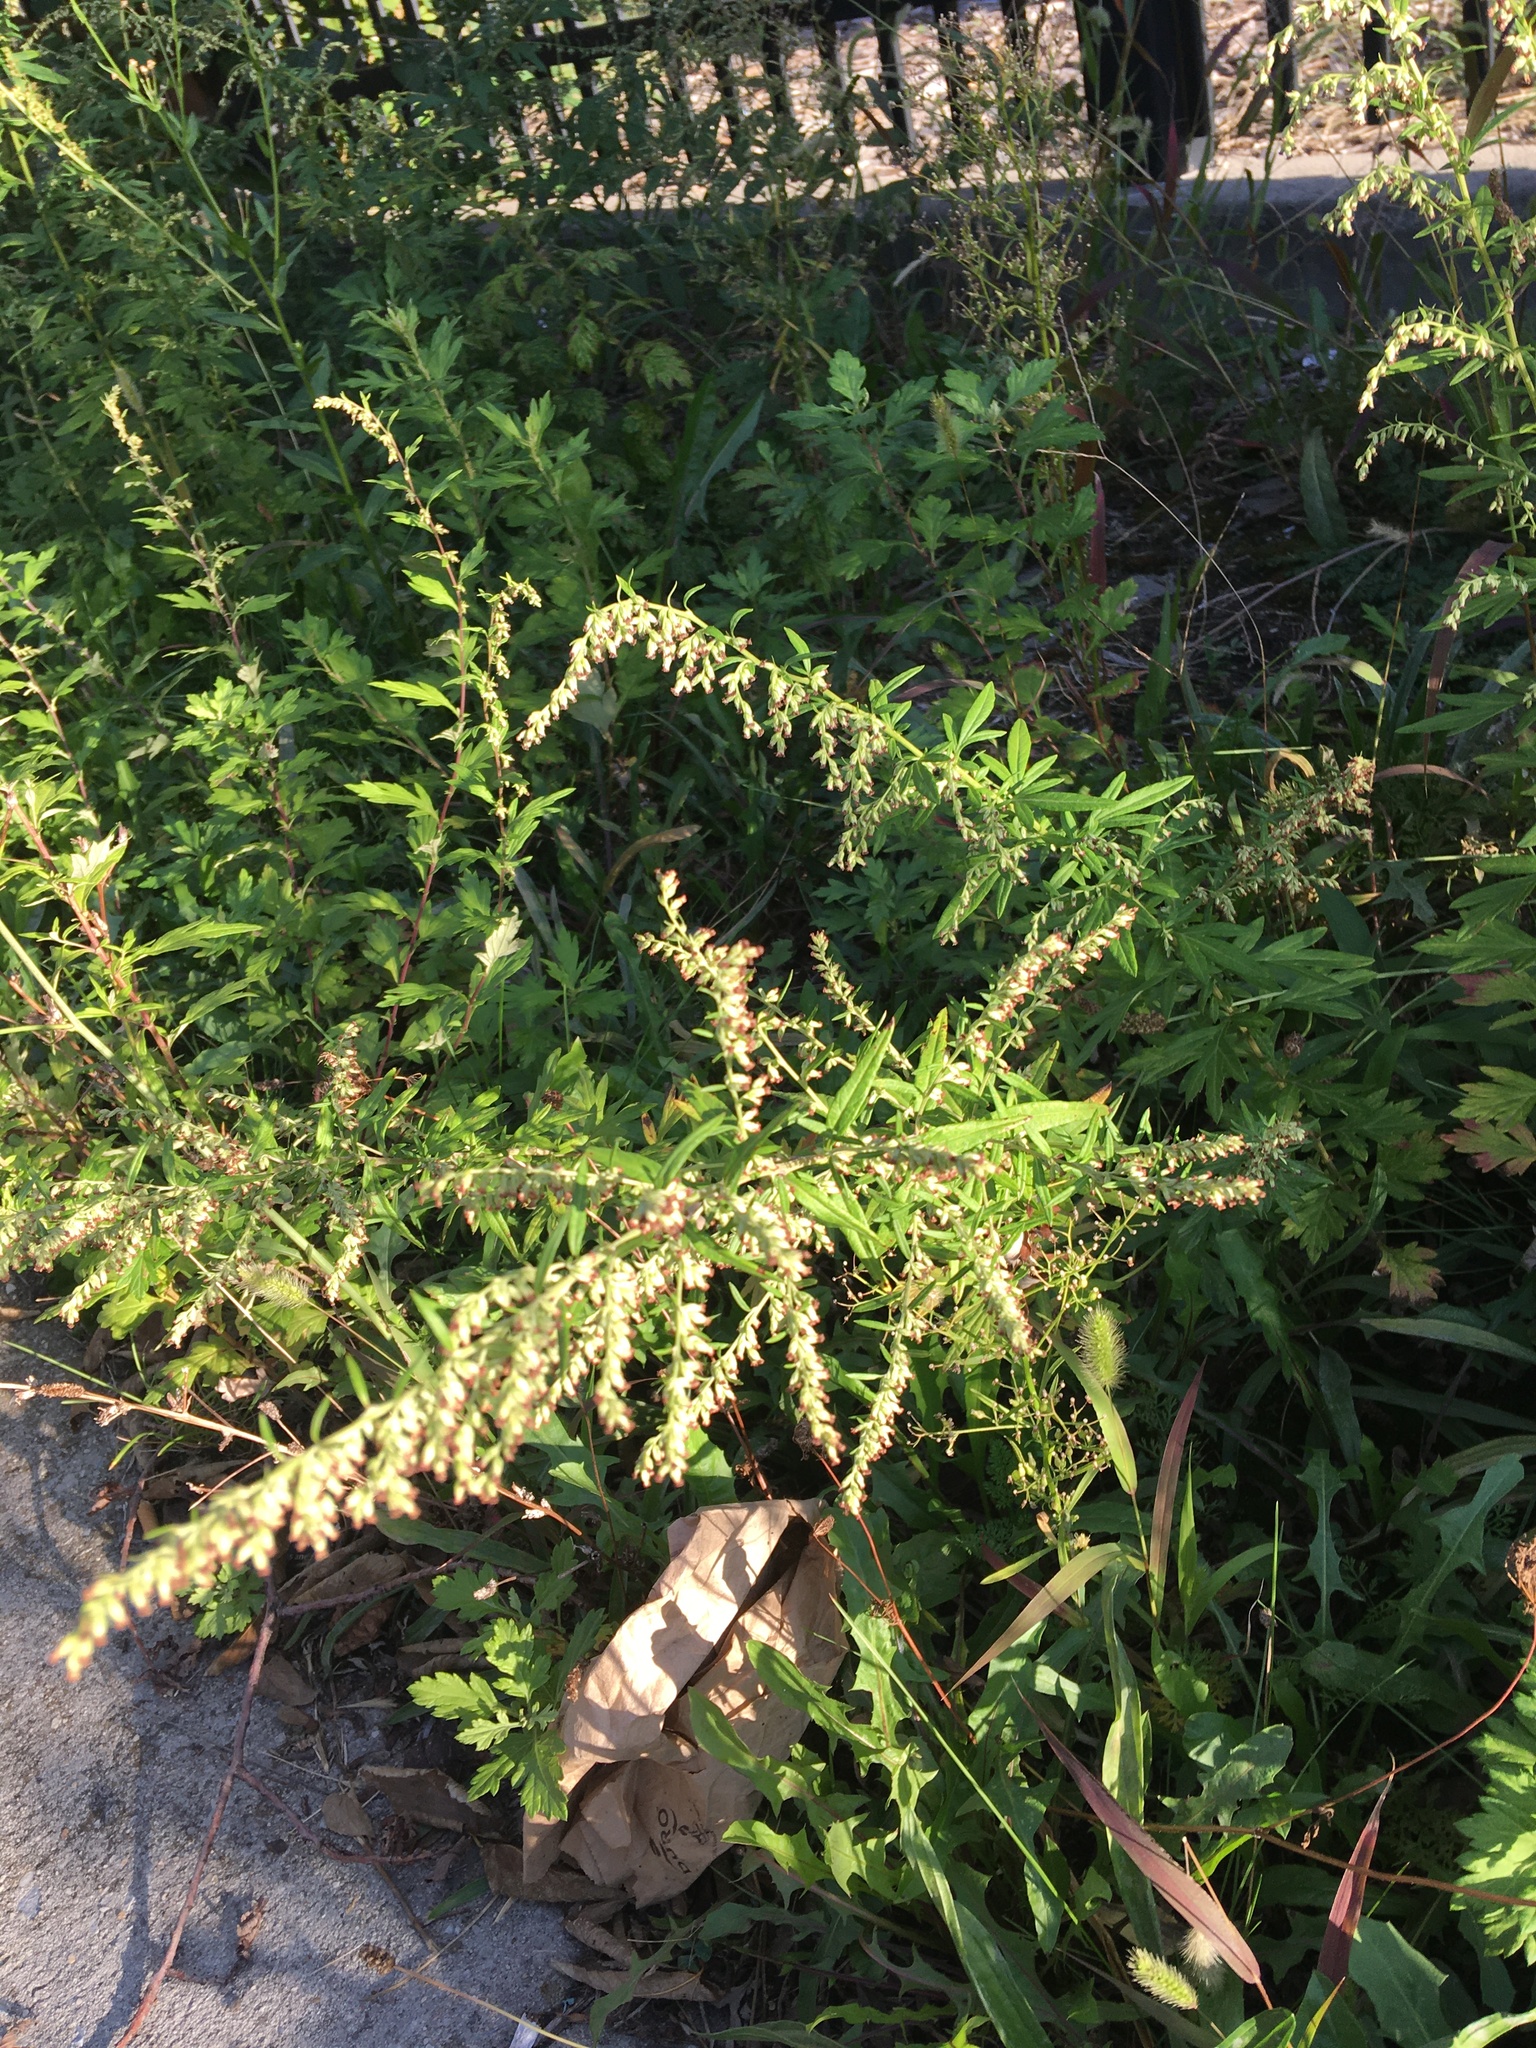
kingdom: Plantae
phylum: Tracheophyta
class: Magnoliopsida
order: Asterales
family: Asteraceae
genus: Artemisia
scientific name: Artemisia vulgaris
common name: Mugwort
